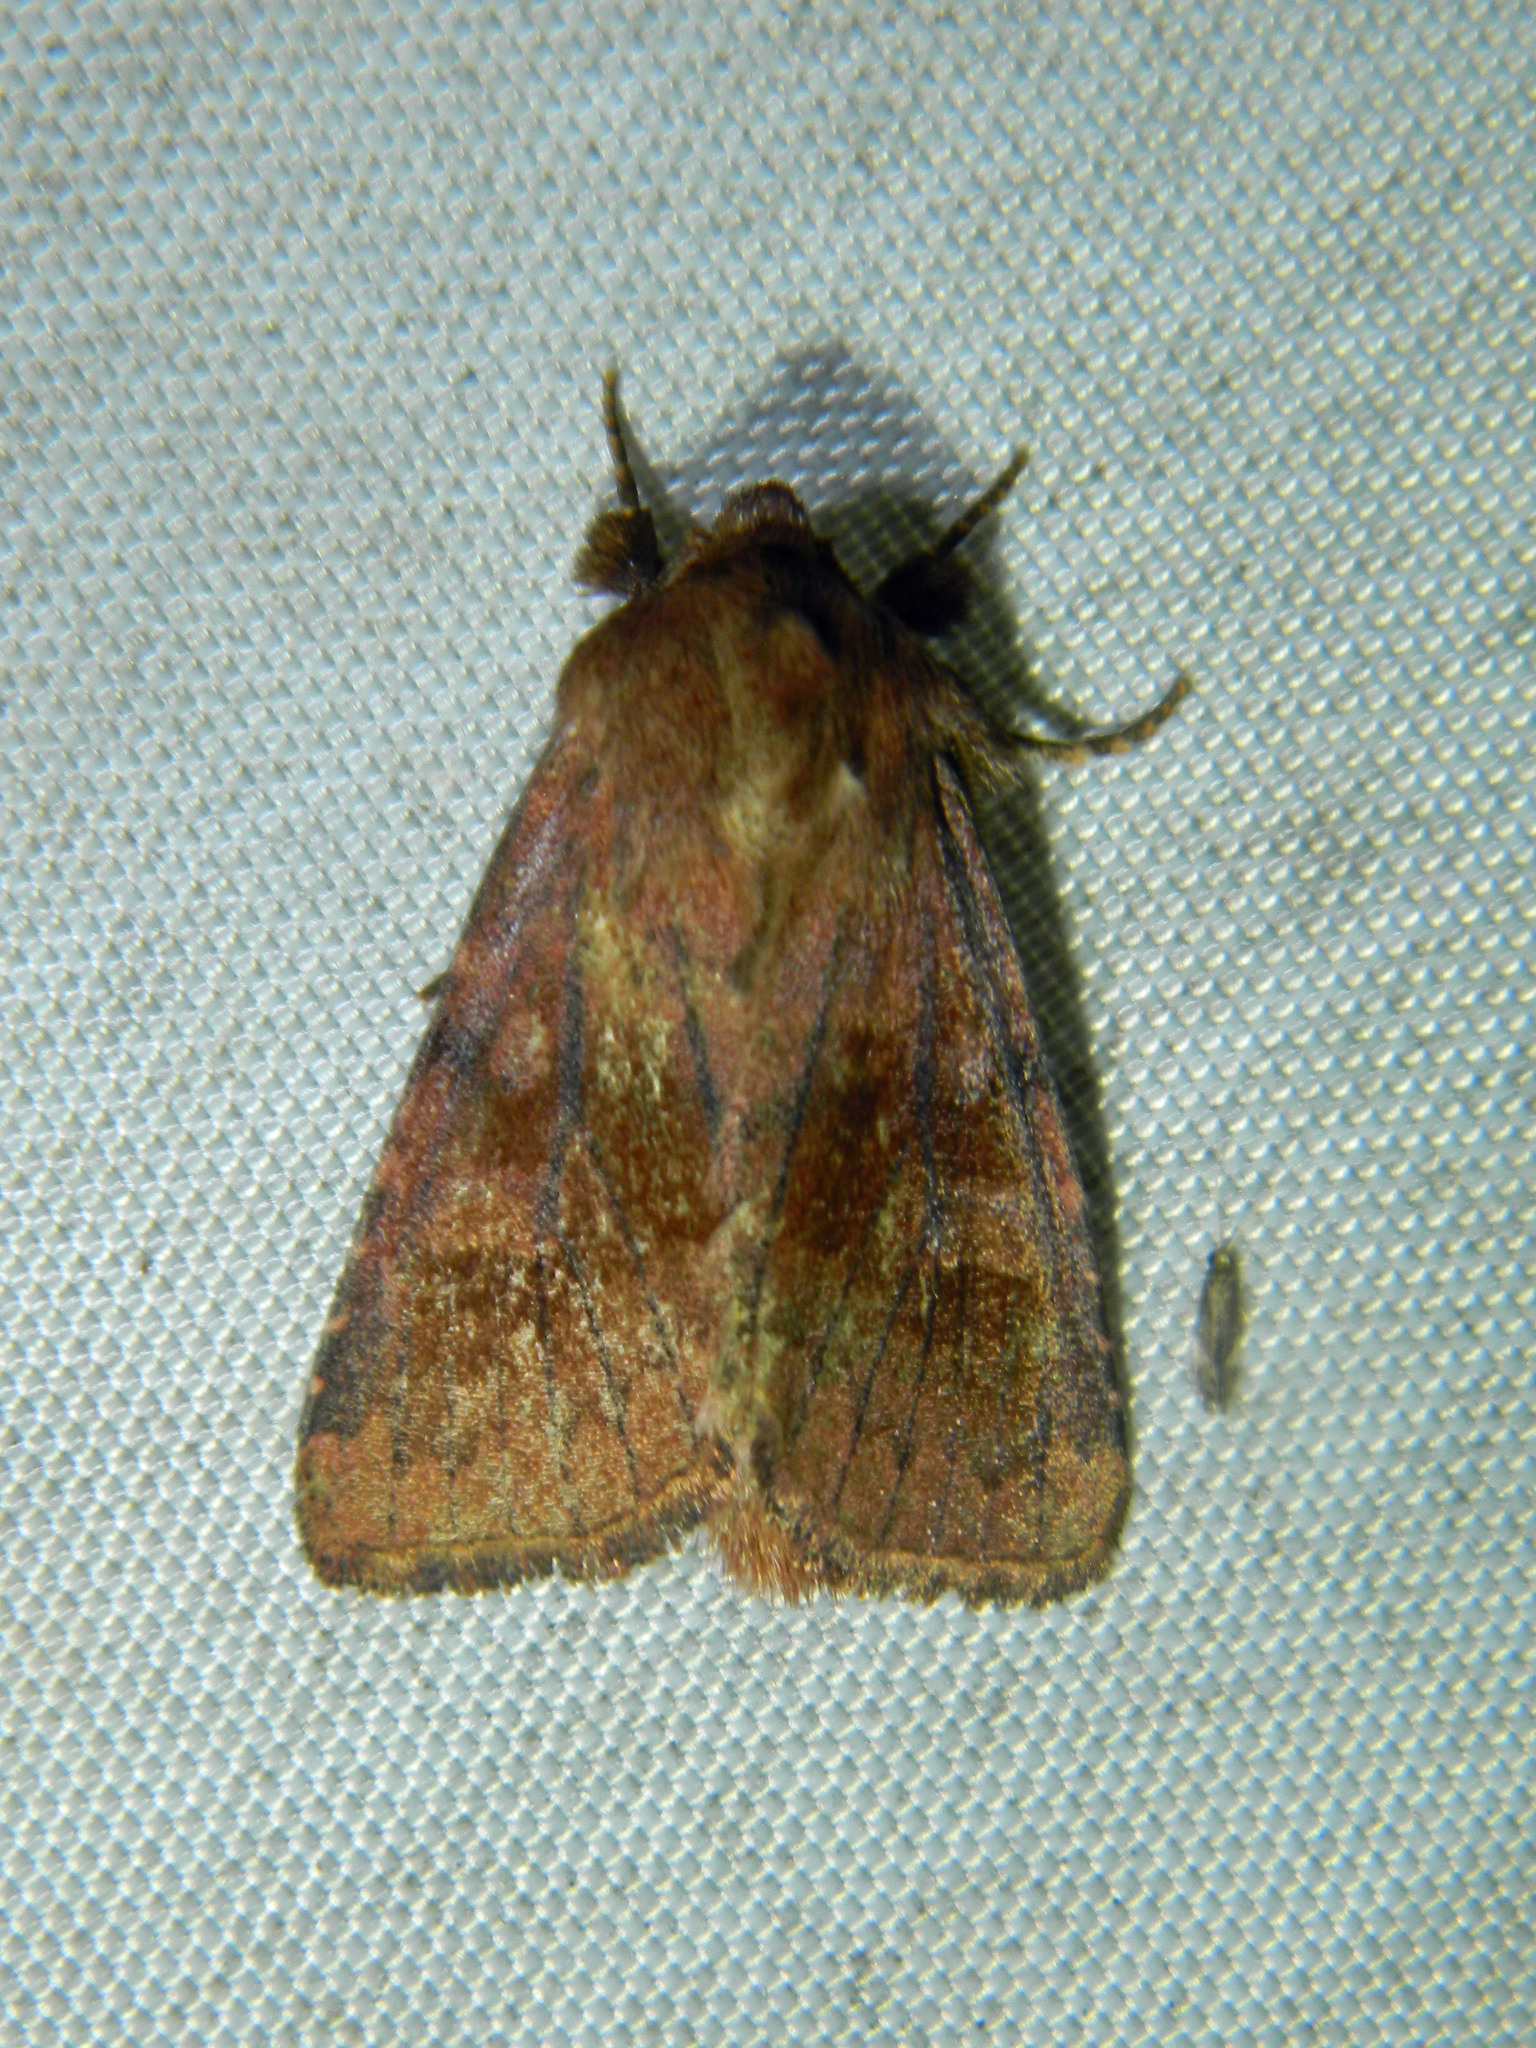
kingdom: Animalia
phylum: Arthropoda
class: Insecta
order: Lepidoptera
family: Noctuidae
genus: Nephelodes
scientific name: Nephelodes minians
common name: Bronzed cutworm
